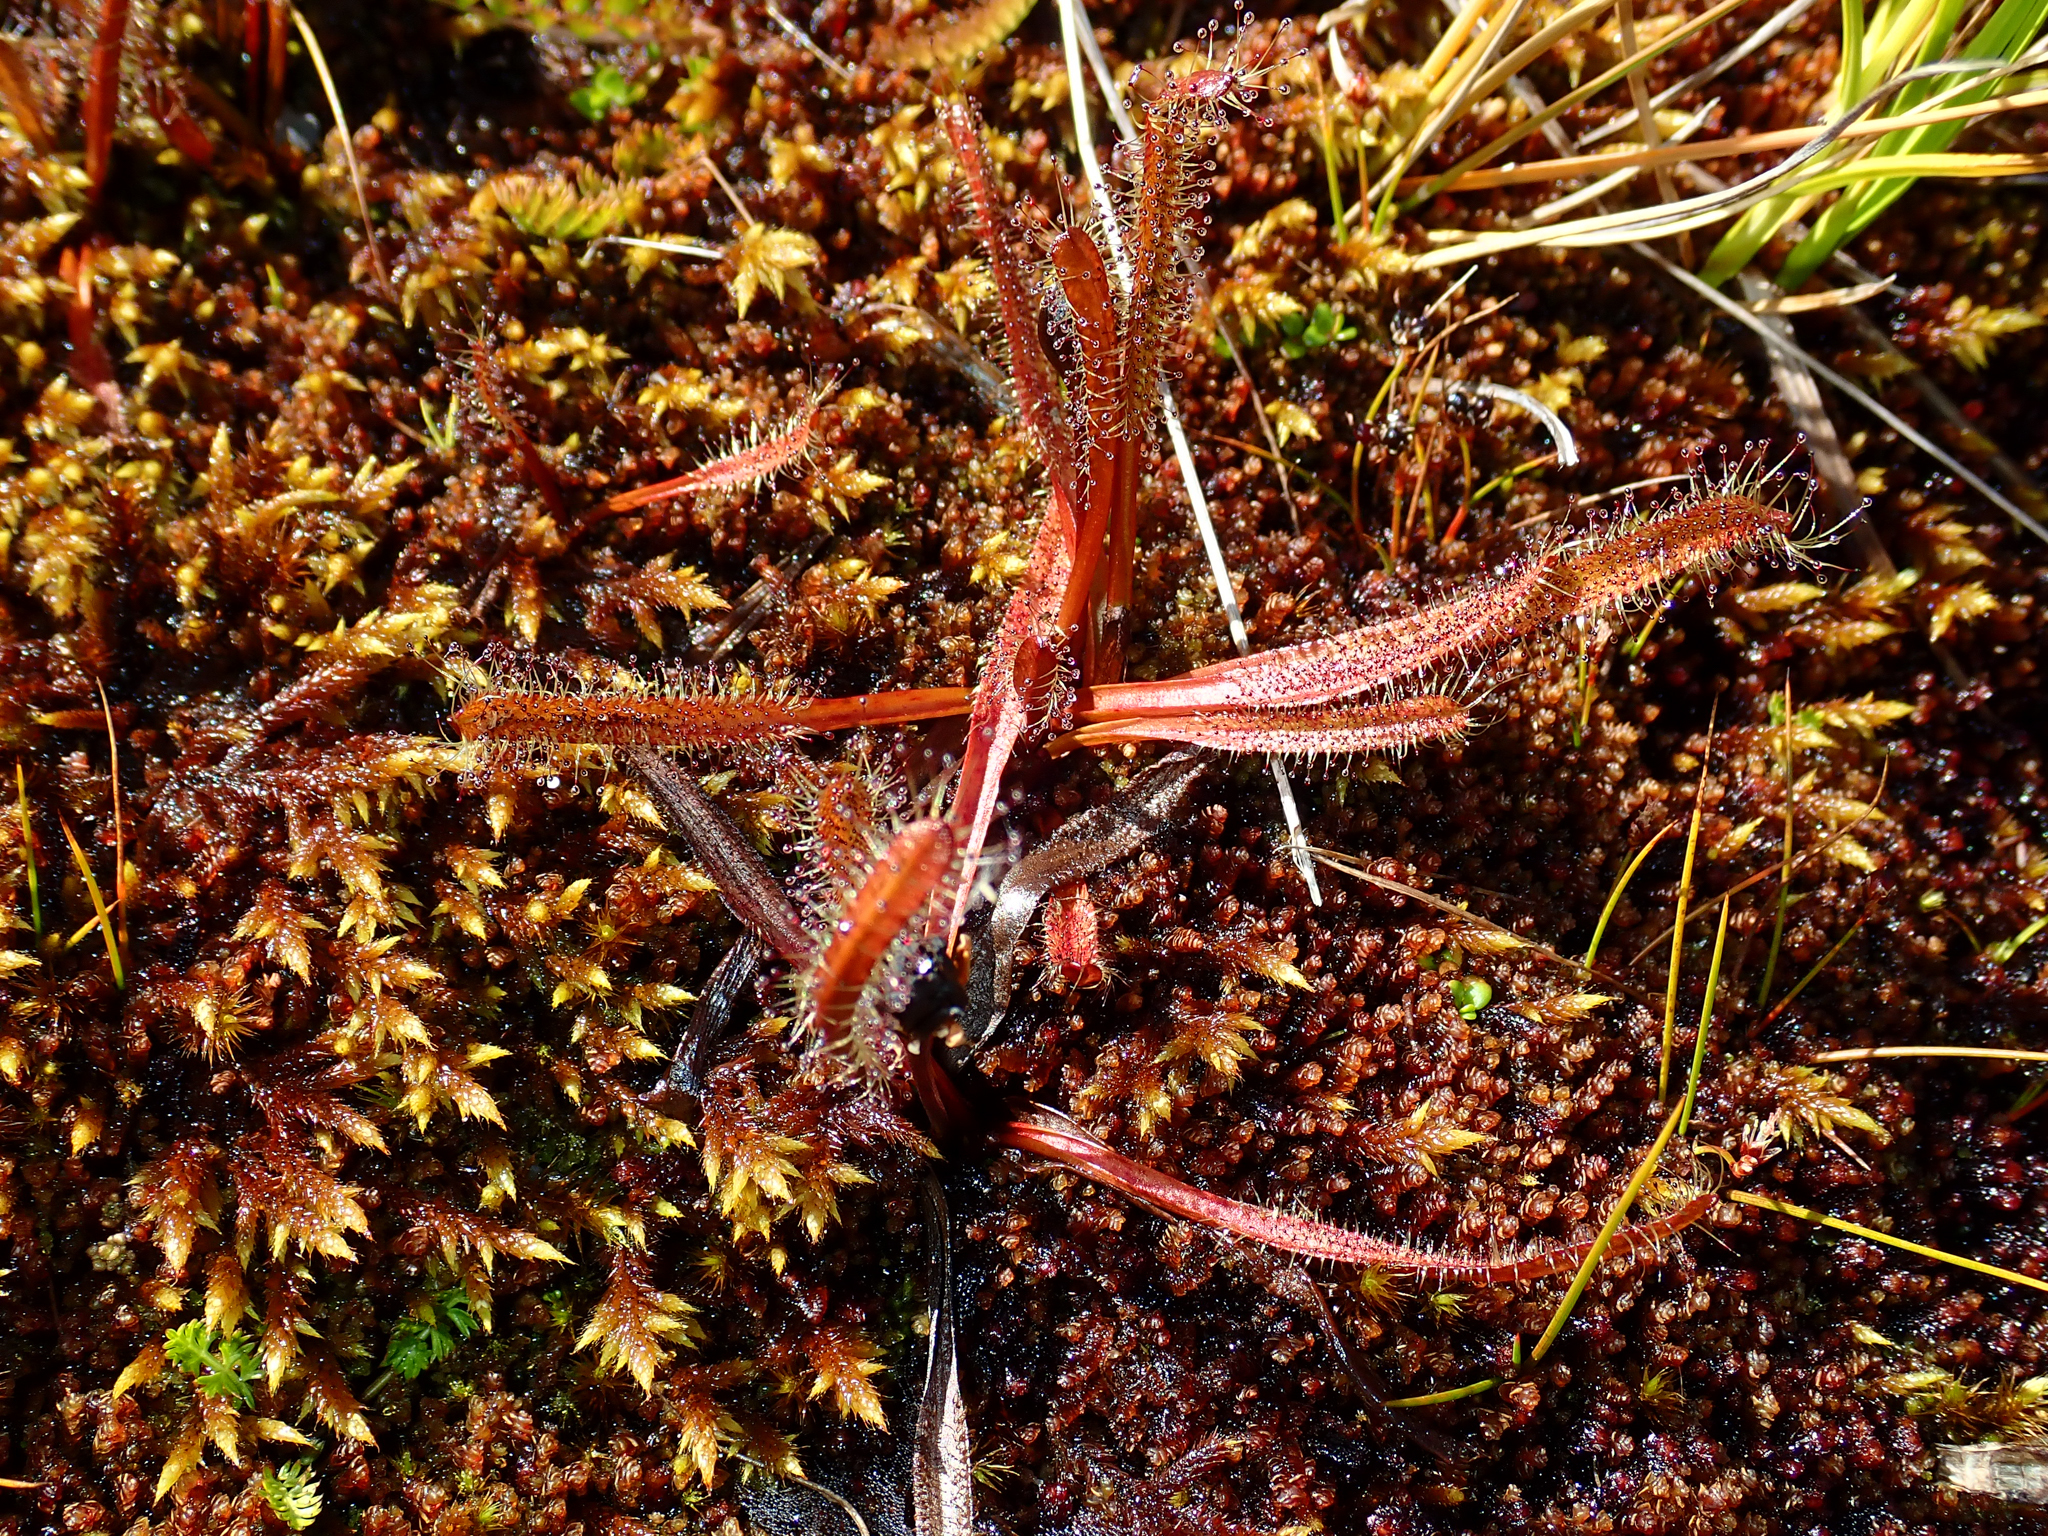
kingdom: Plantae
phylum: Tracheophyta
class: Magnoliopsida
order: Caryophyllales
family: Droseraceae
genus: Drosera
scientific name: Drosera arcturi
